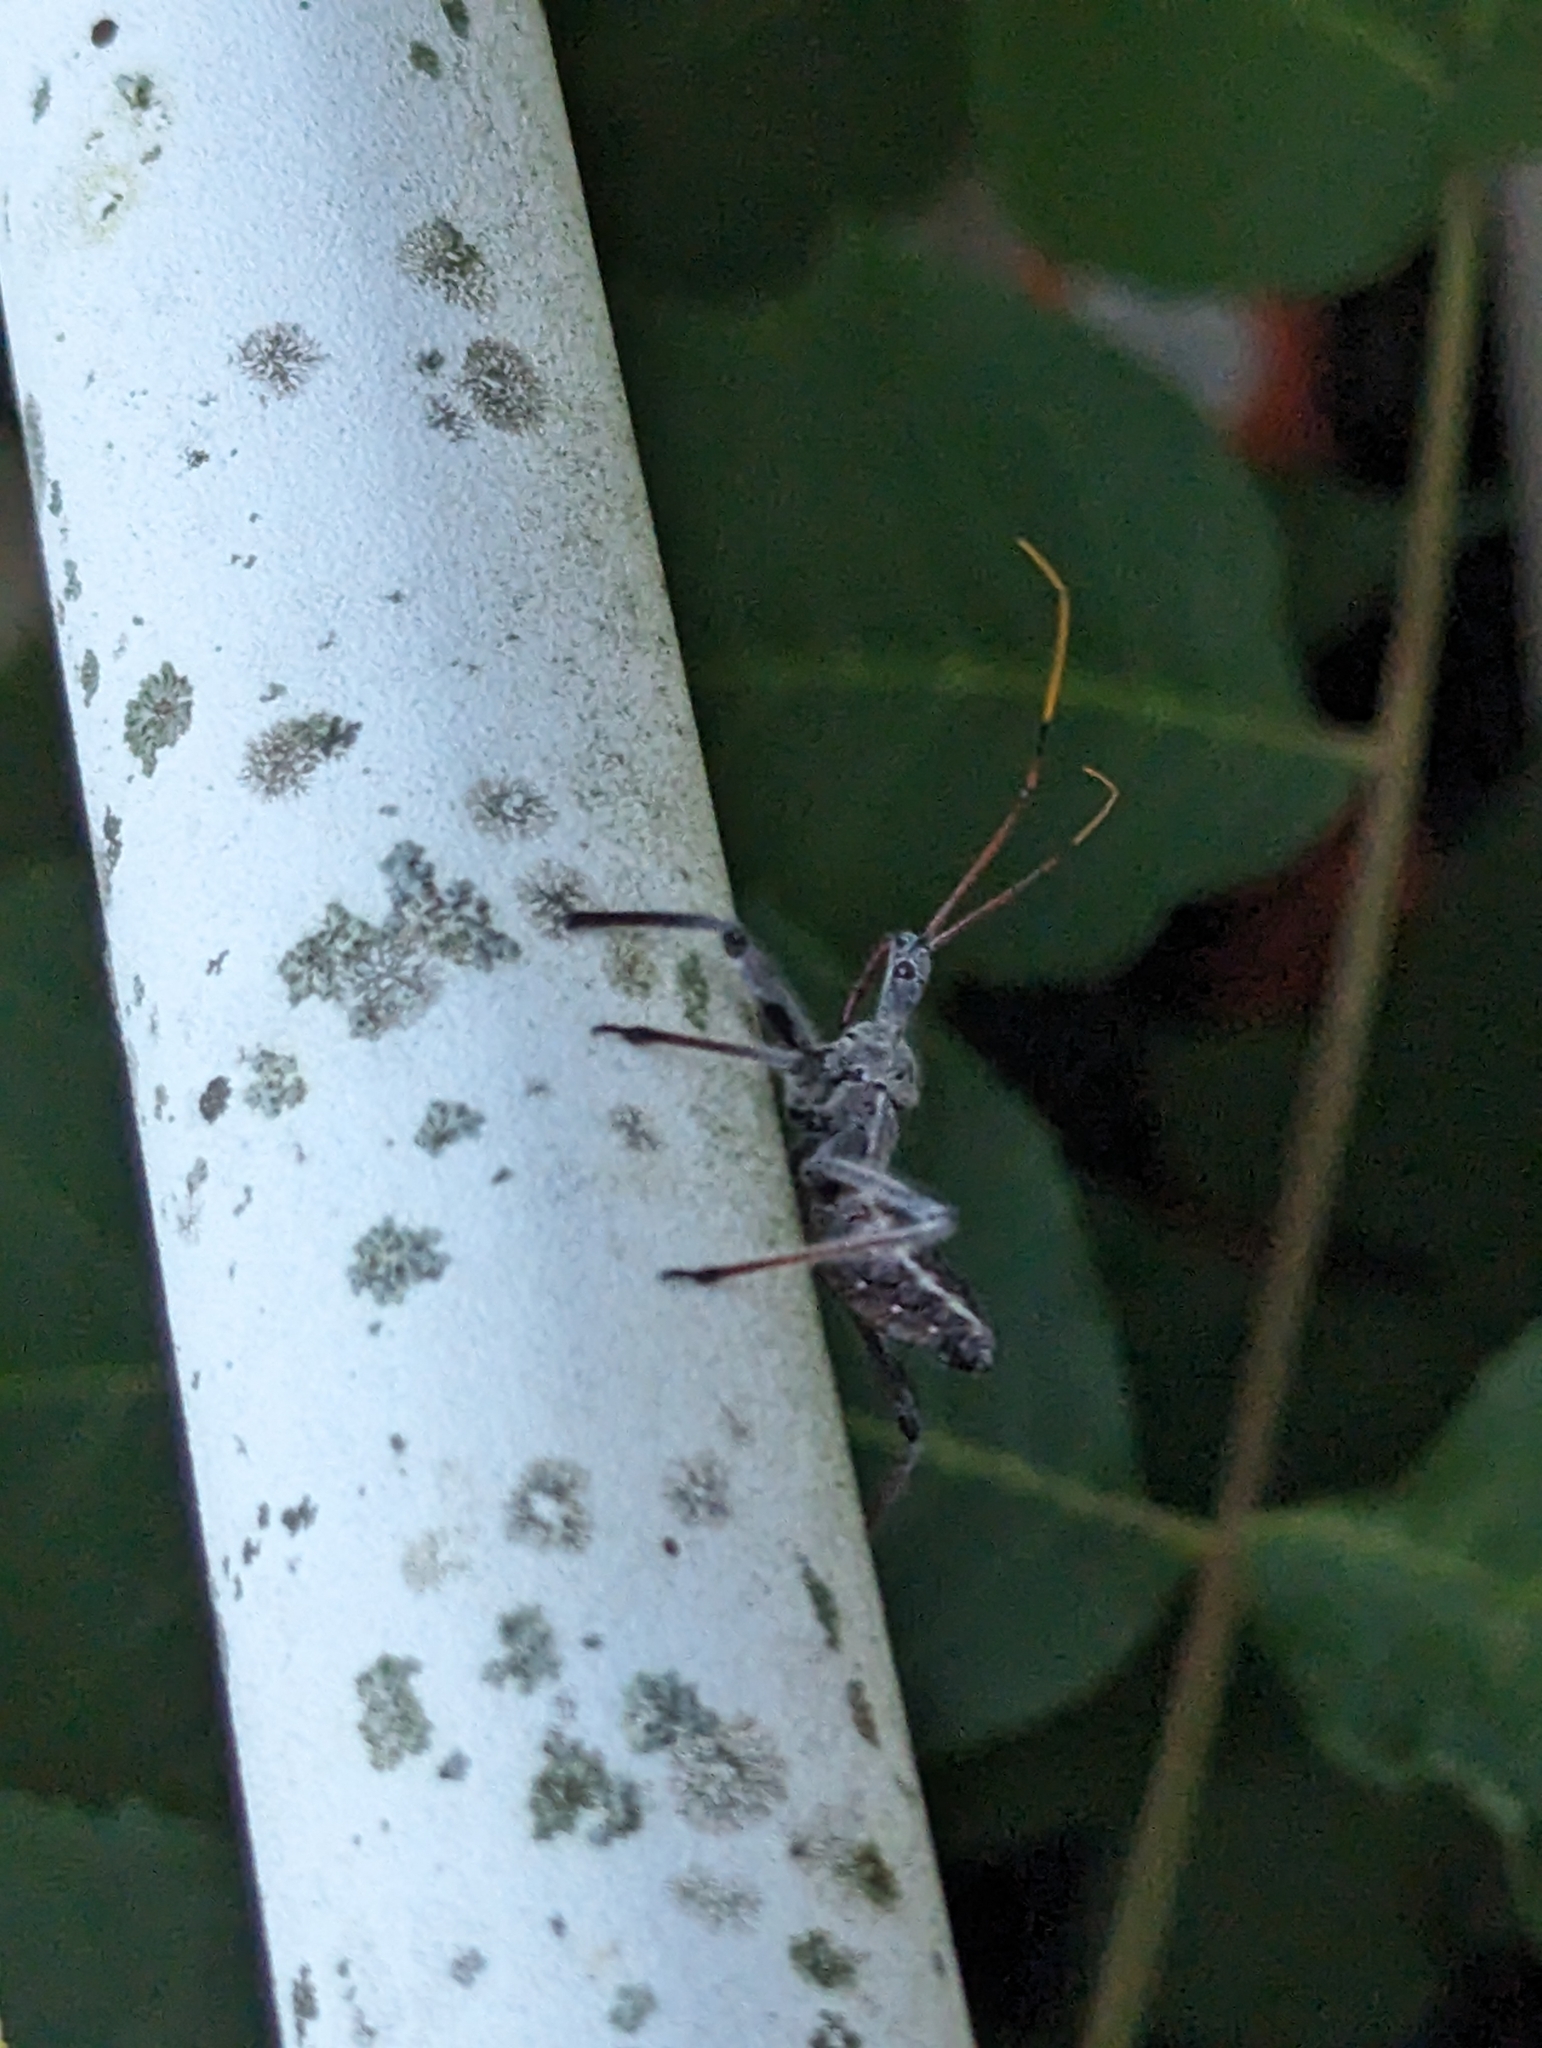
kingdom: Animalia
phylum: Arthropoda
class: Insecta
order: Hemiptera
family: Reduviidae
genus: Arilus
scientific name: Arilus cristatus
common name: North american wheel bug
